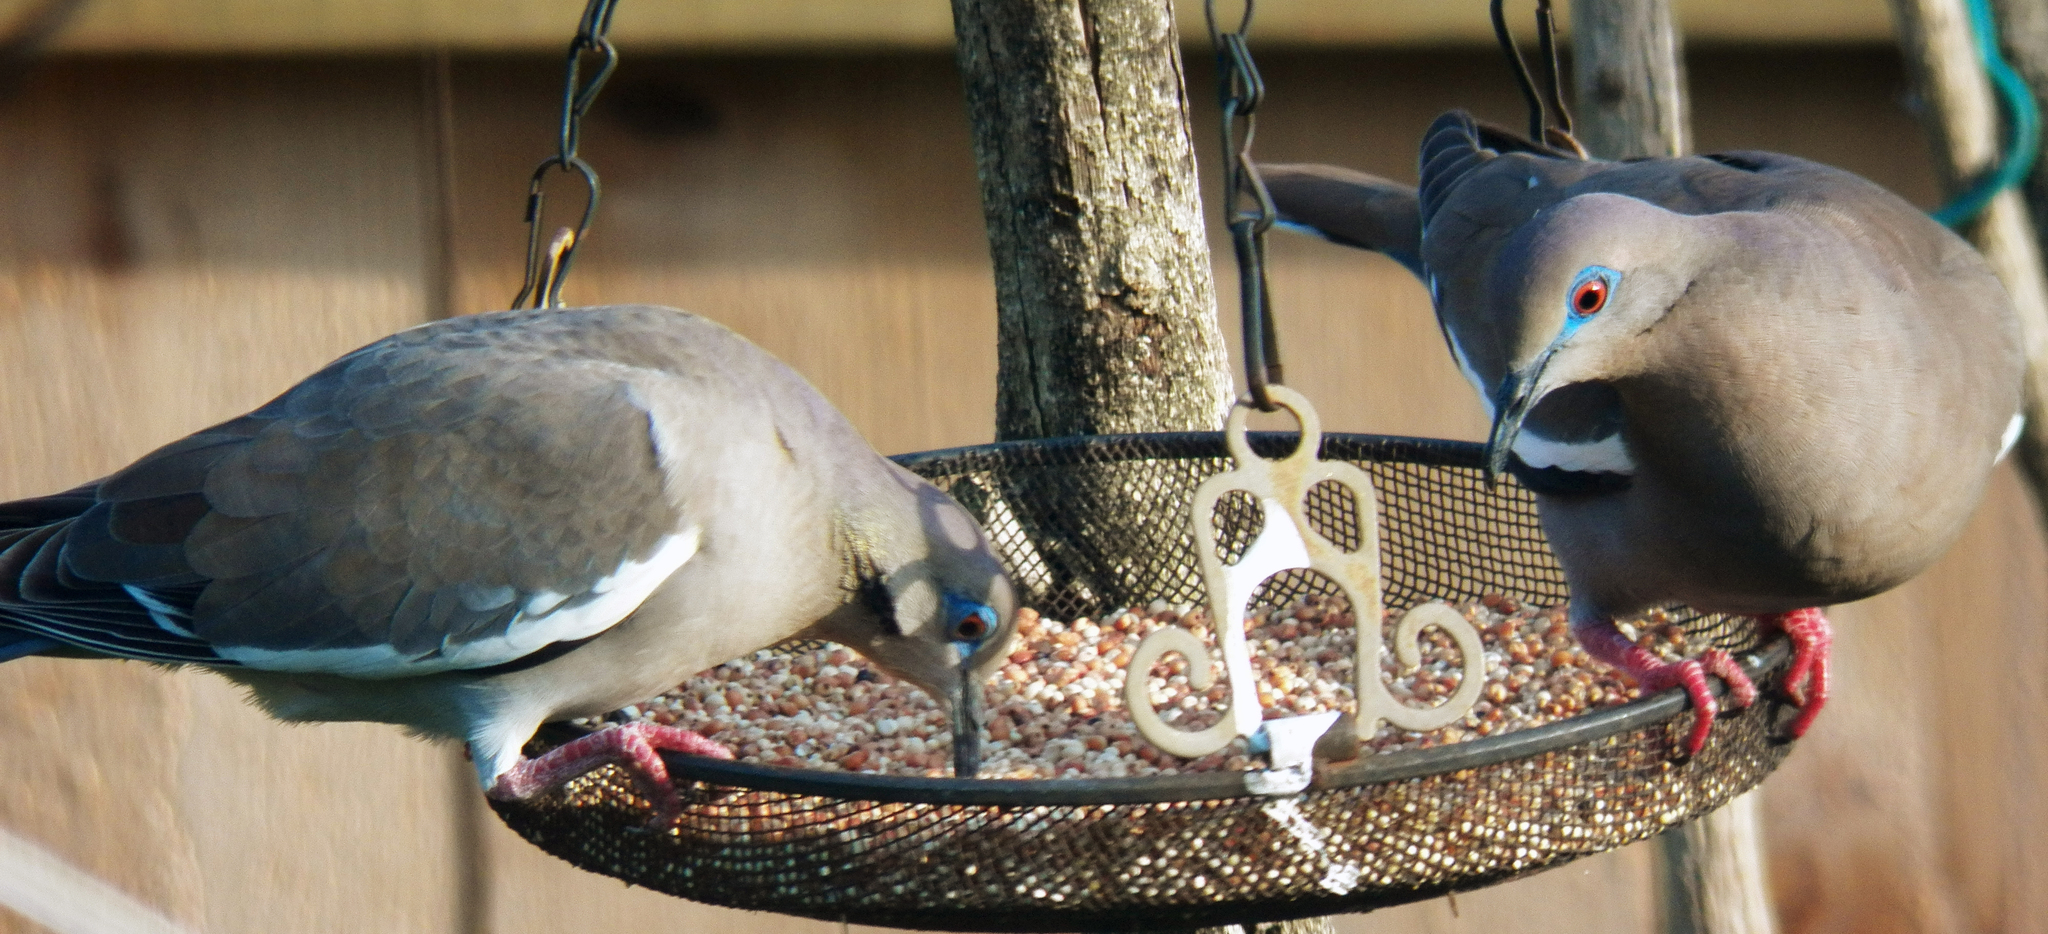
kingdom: Animalia
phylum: Chordata
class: Aves
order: Columbiformes
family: Columbidae
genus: Zenaida
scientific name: Zenaida asiatica
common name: White-winged dove
